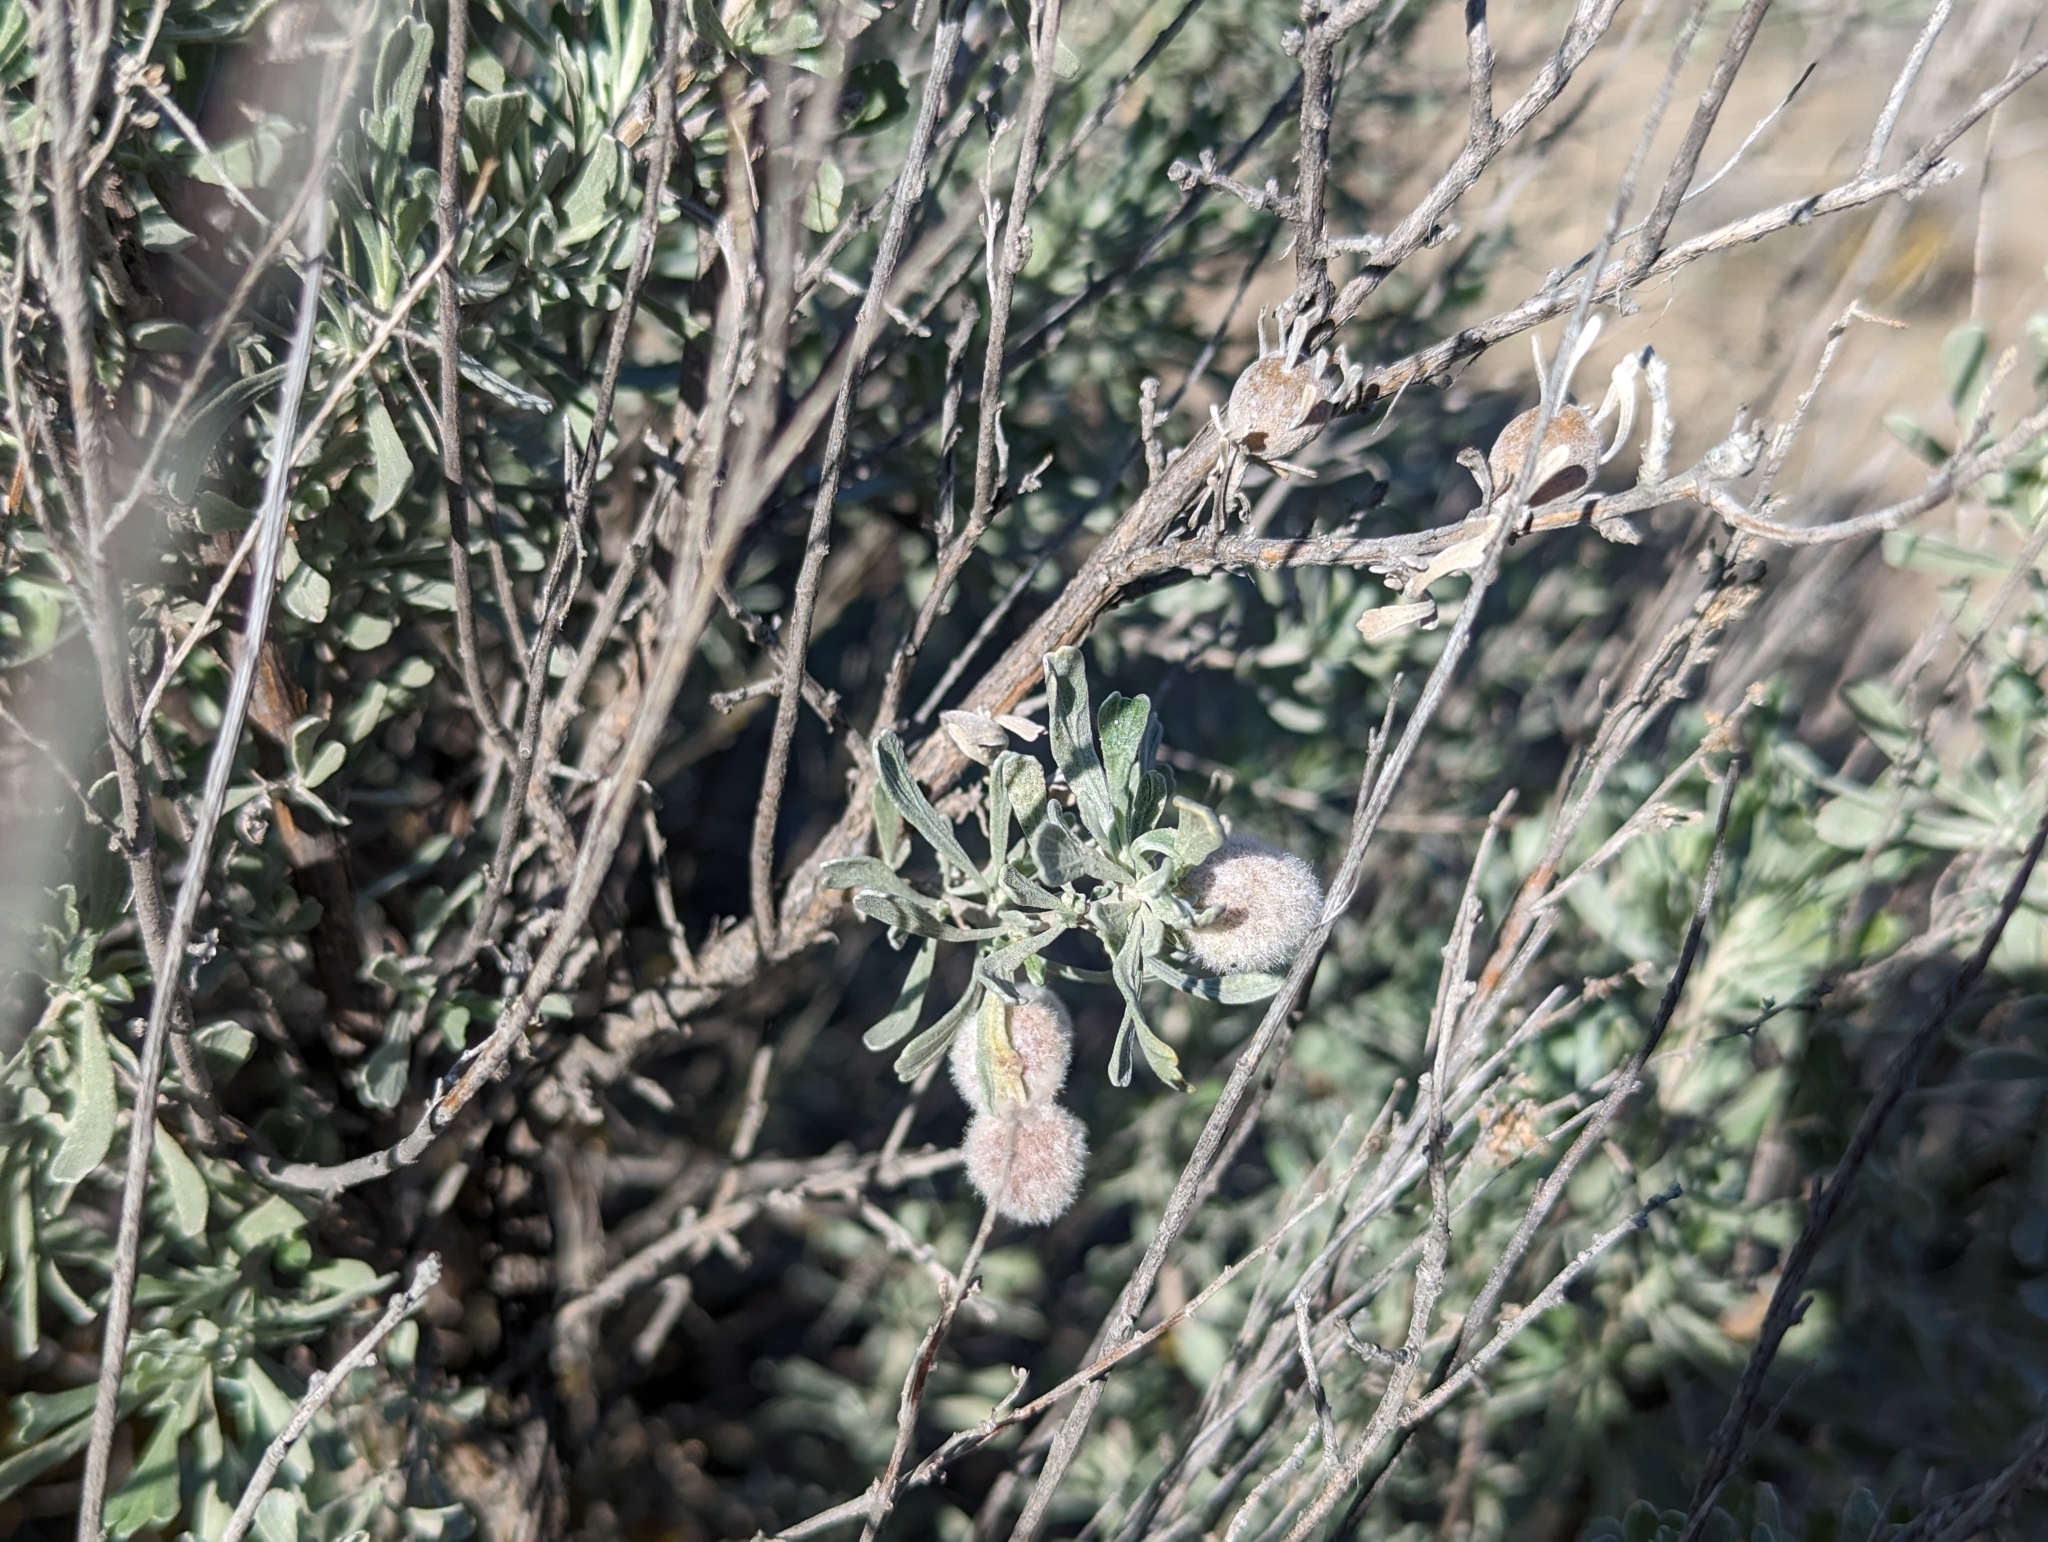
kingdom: Animalia
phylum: Arthropoda
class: Insecta
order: Diptera
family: Cecidomyiidae
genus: Rhopalomyia
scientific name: Rhopalomyia hirtipomum
